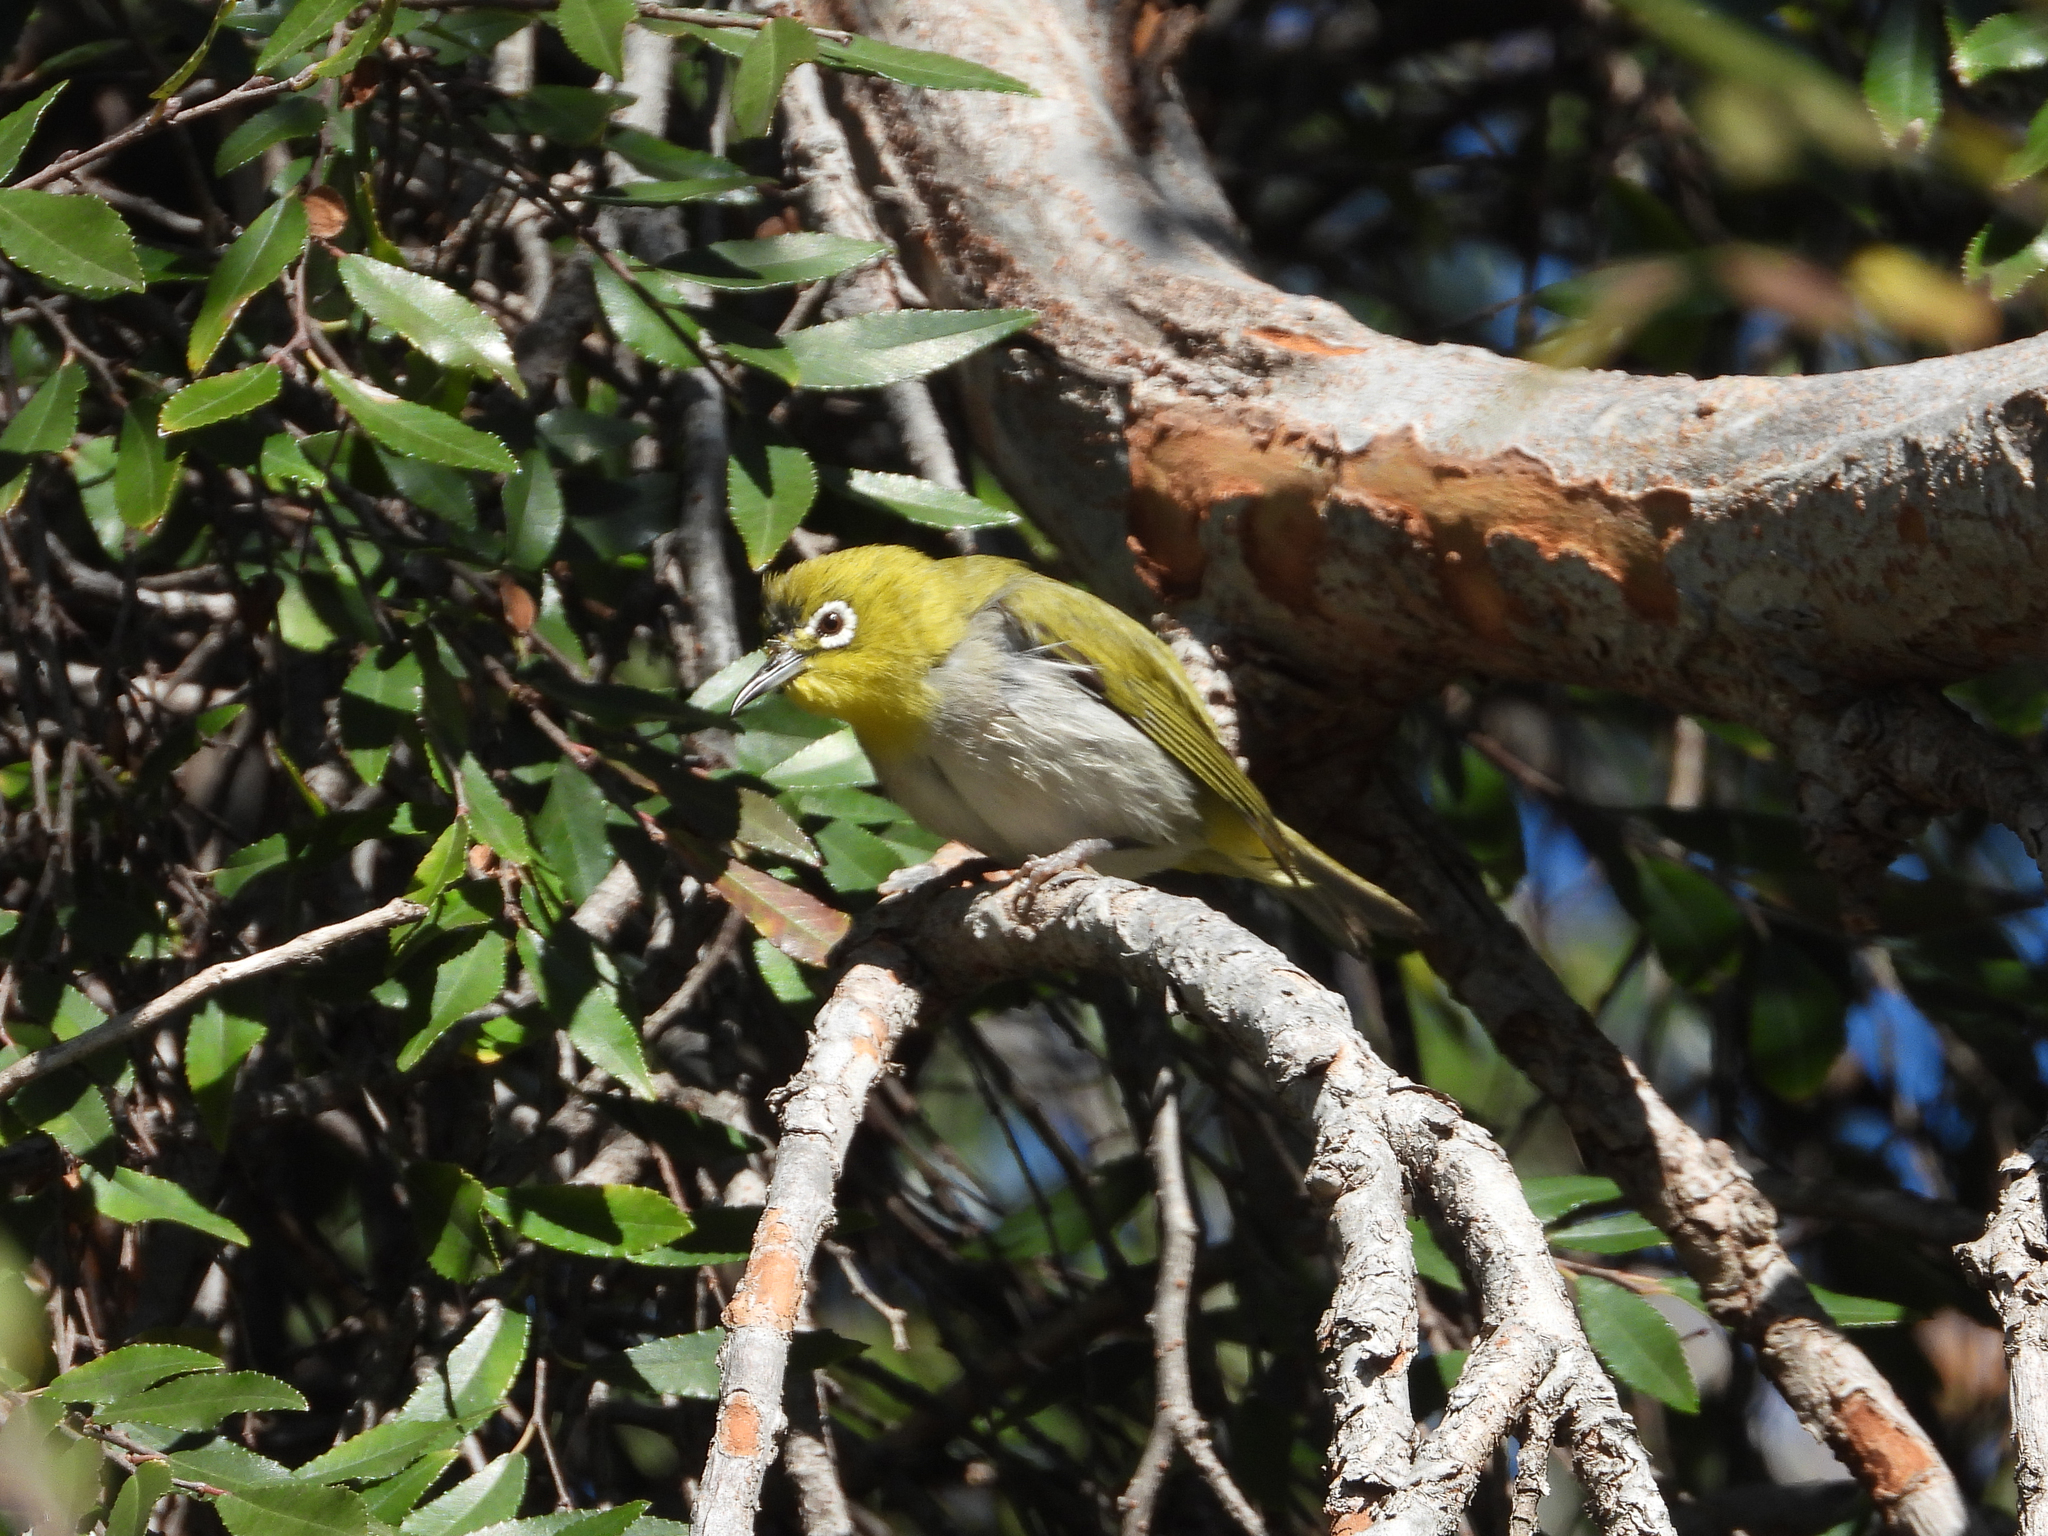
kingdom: Animalia
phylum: Chordata
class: Aves
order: Passeriformes
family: Zosteropidae
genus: Zosterops
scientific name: Zosterops simplex
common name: Swinhoe's white-eye
